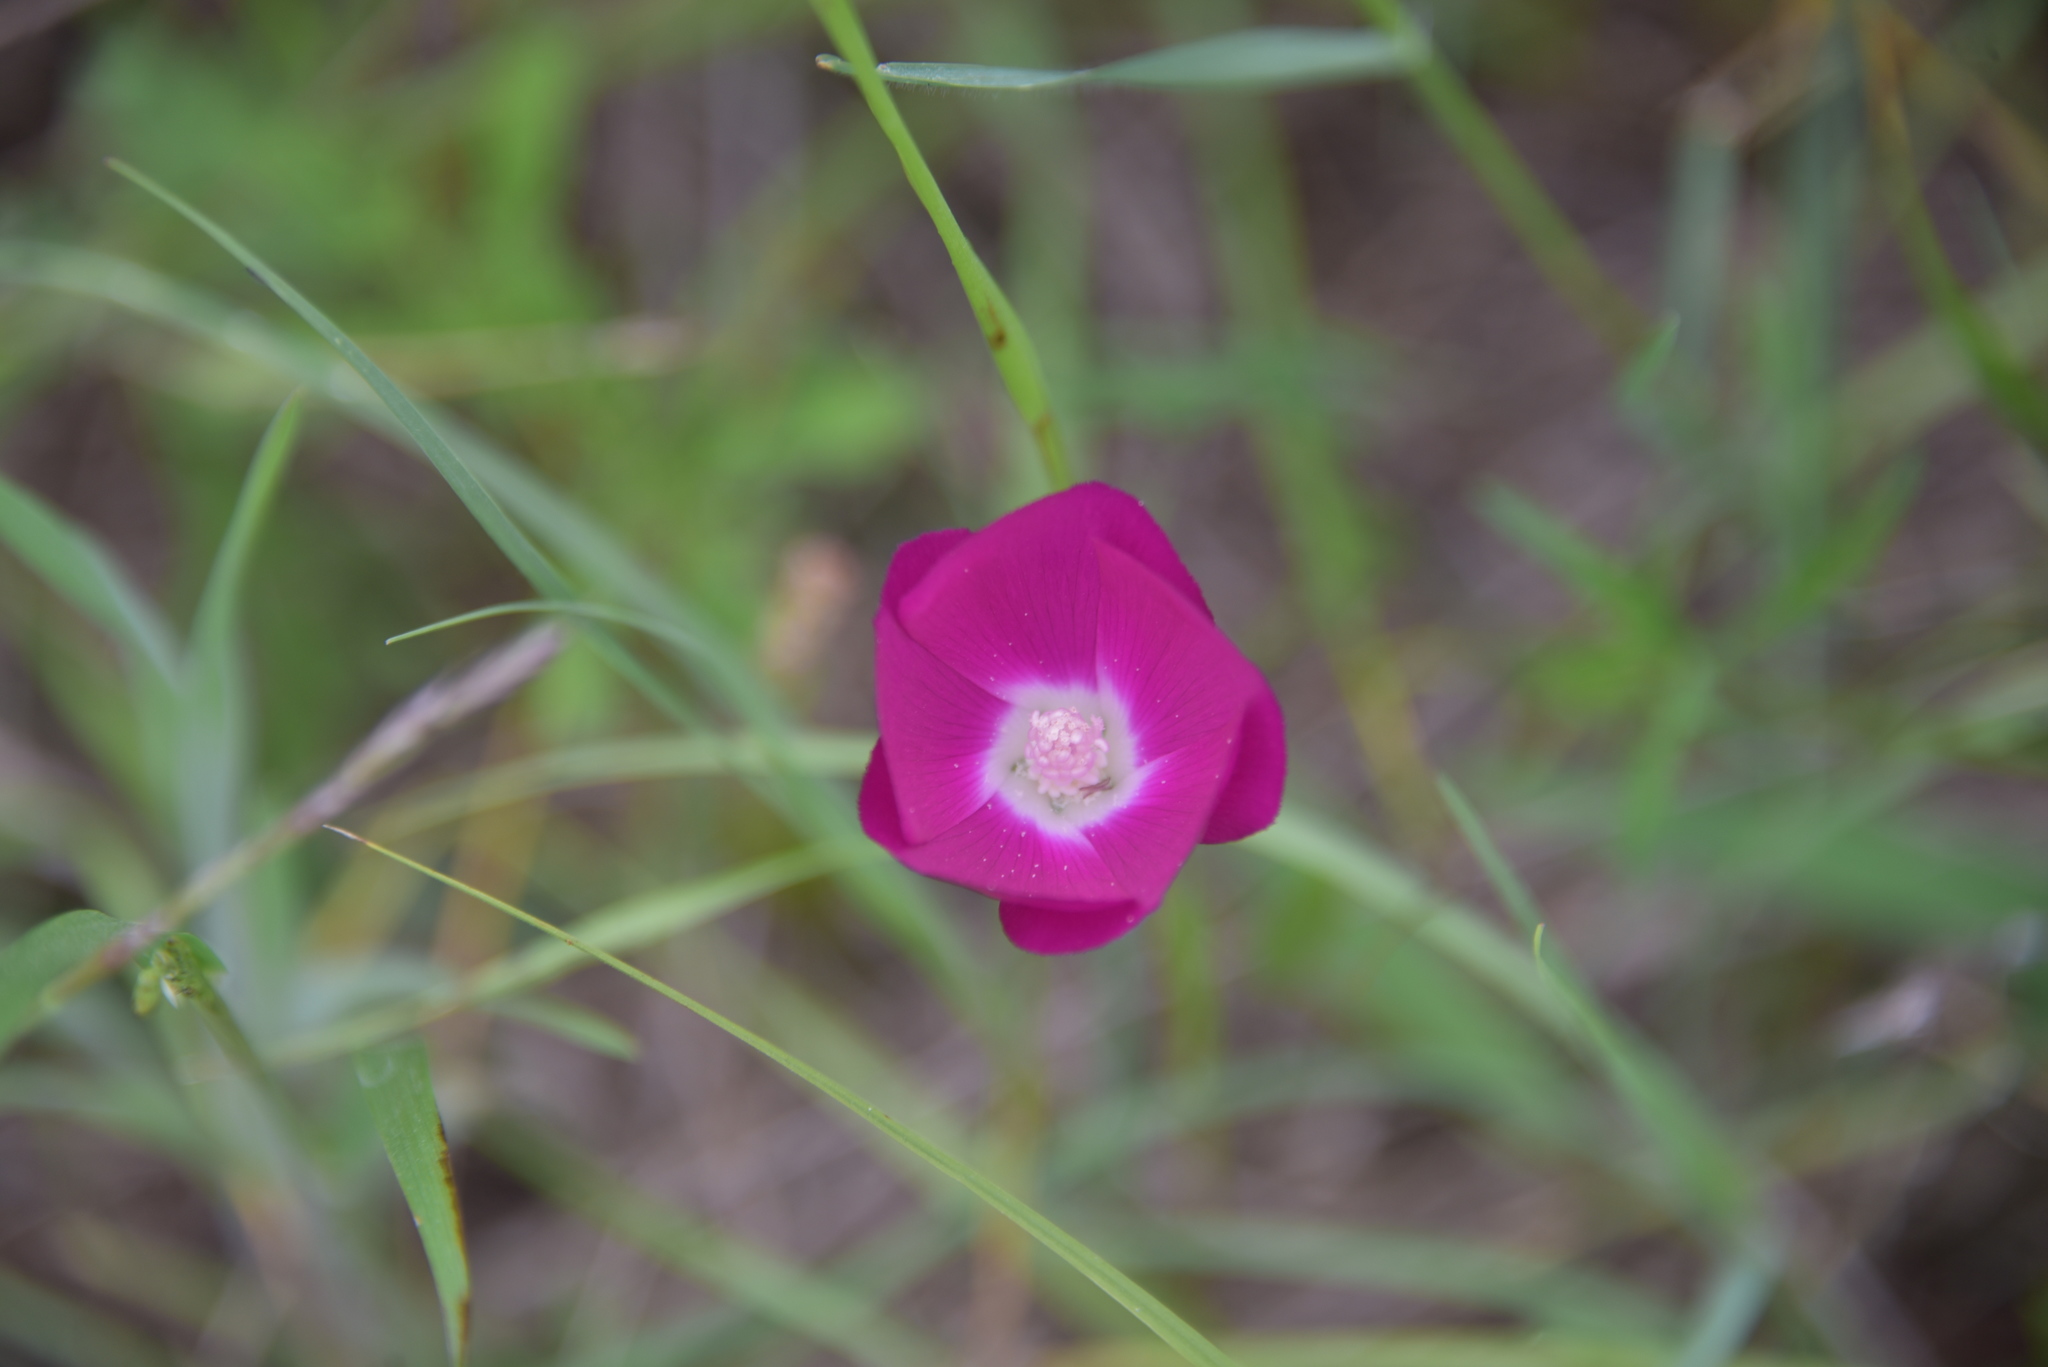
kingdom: Plantae
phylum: Tracheophyta
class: Magnoliopsida
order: Malvales
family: Malvaceae
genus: Callirhoe
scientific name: Callirhoe involucrata
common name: Purple poppy-mallow
